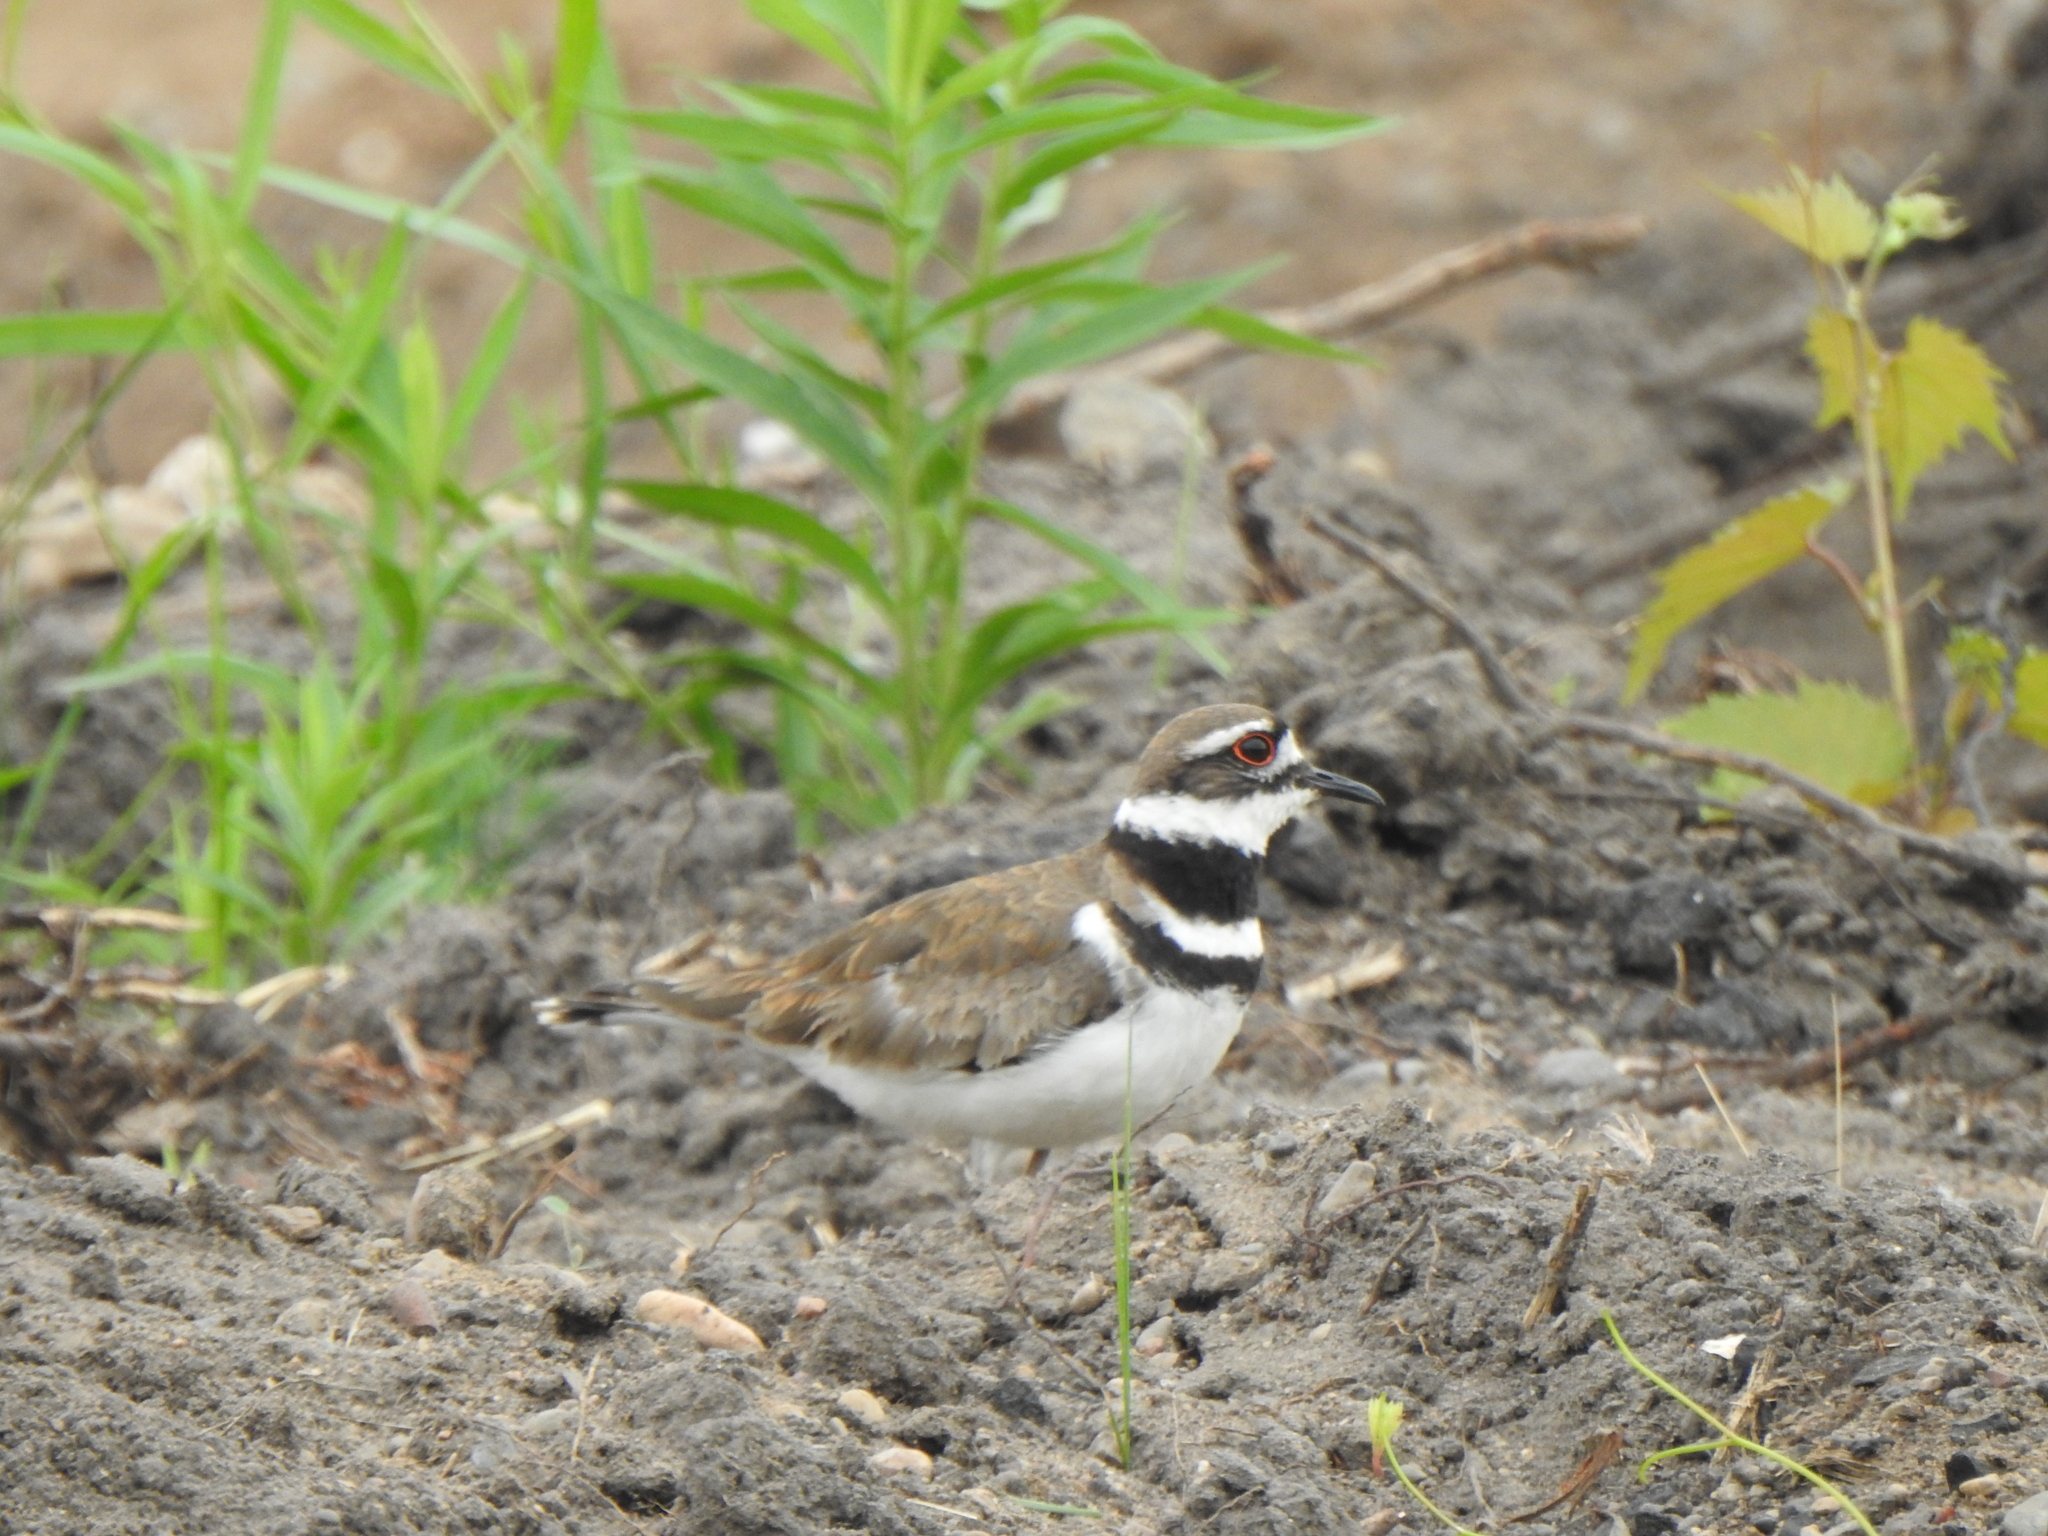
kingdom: Animalia
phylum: Chordata
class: Aves
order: Charadriiformes
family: Charadriidae
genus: Charadrius
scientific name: Charadrius vociferus
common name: Killdeer
